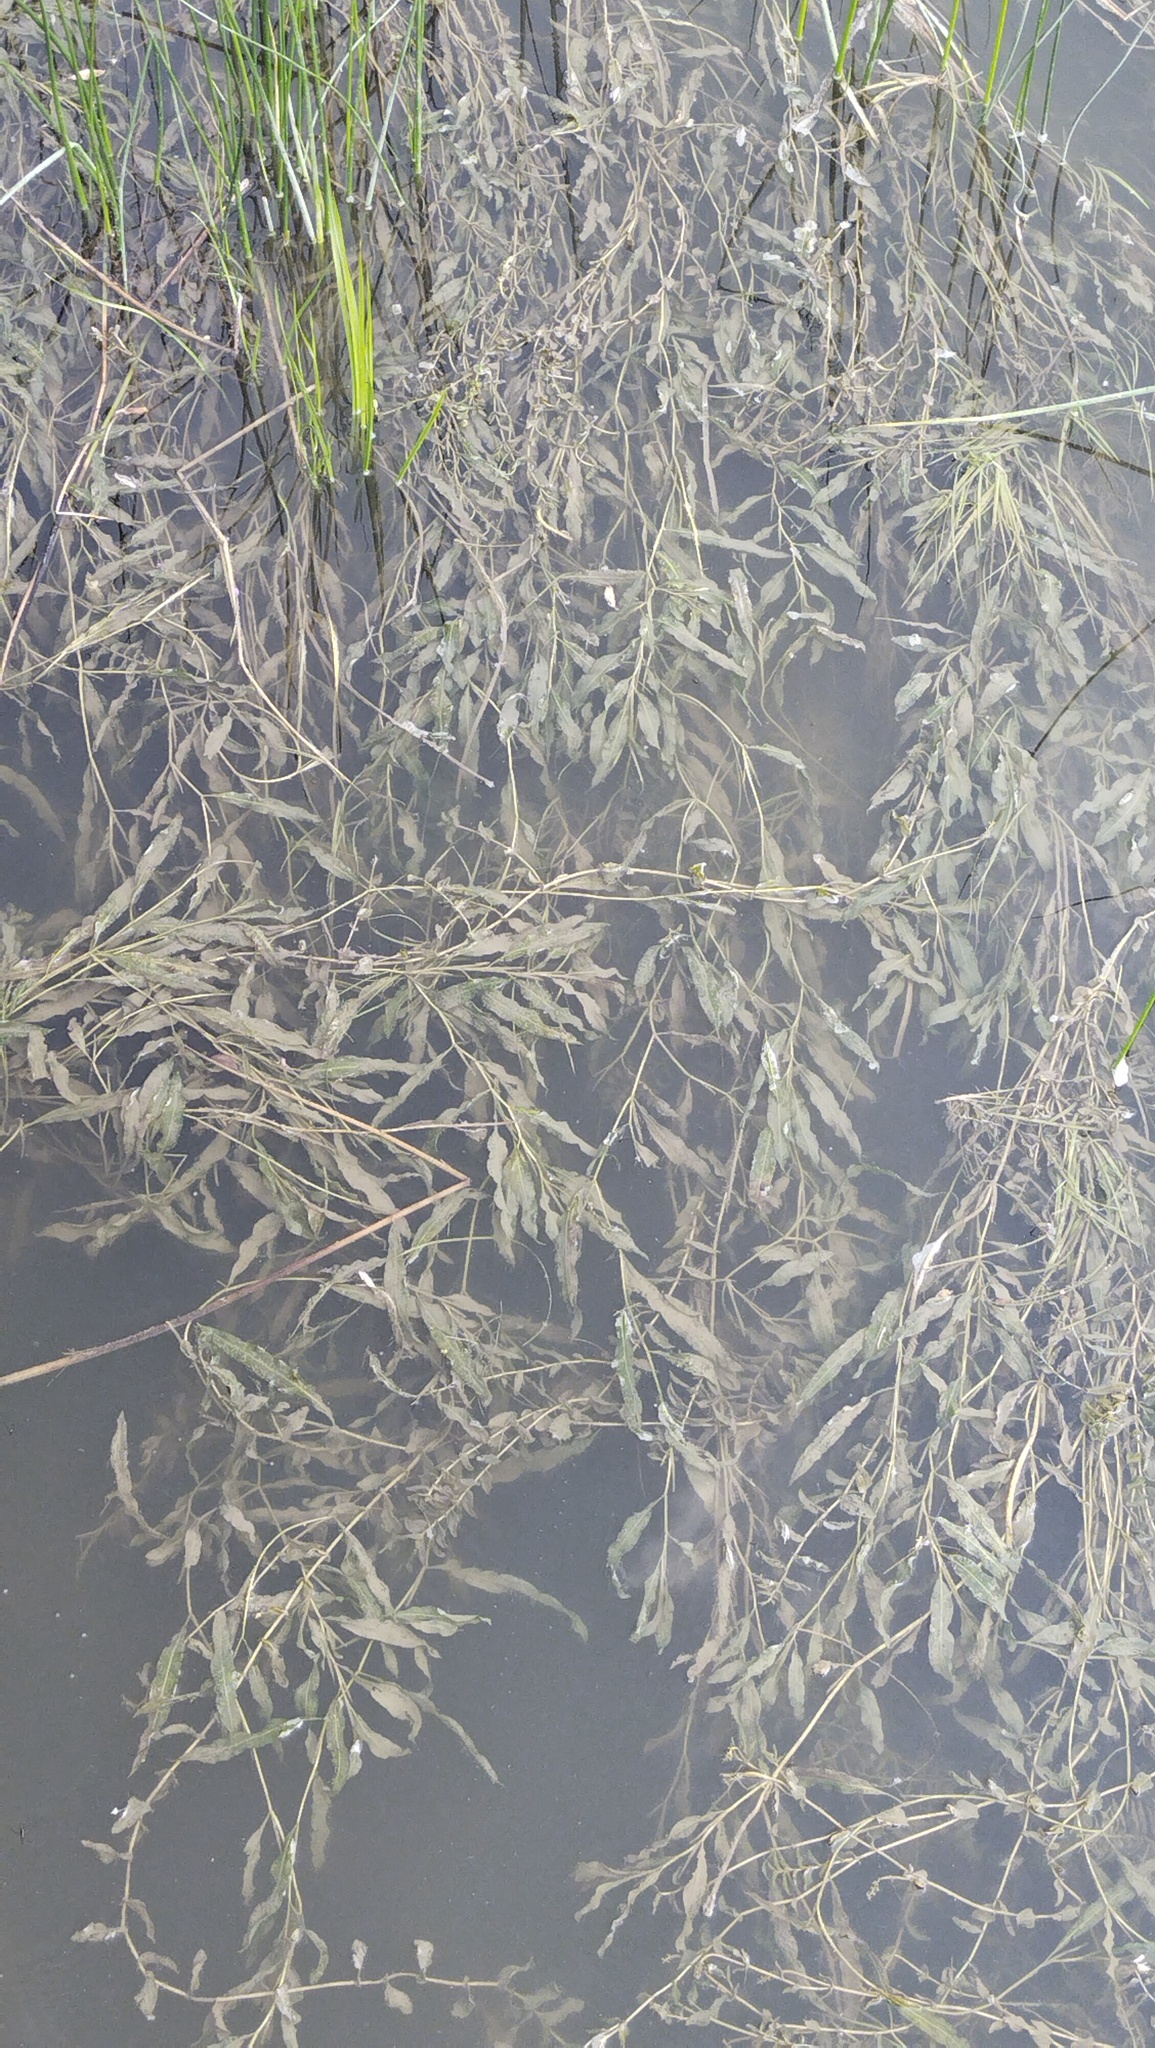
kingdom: Plantae
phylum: Tracheophyta
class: Liliopsida
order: Alismatales
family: Potamogetonaceae
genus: Potamogeton
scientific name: Potamogeton lucens
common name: Shining pondweed
